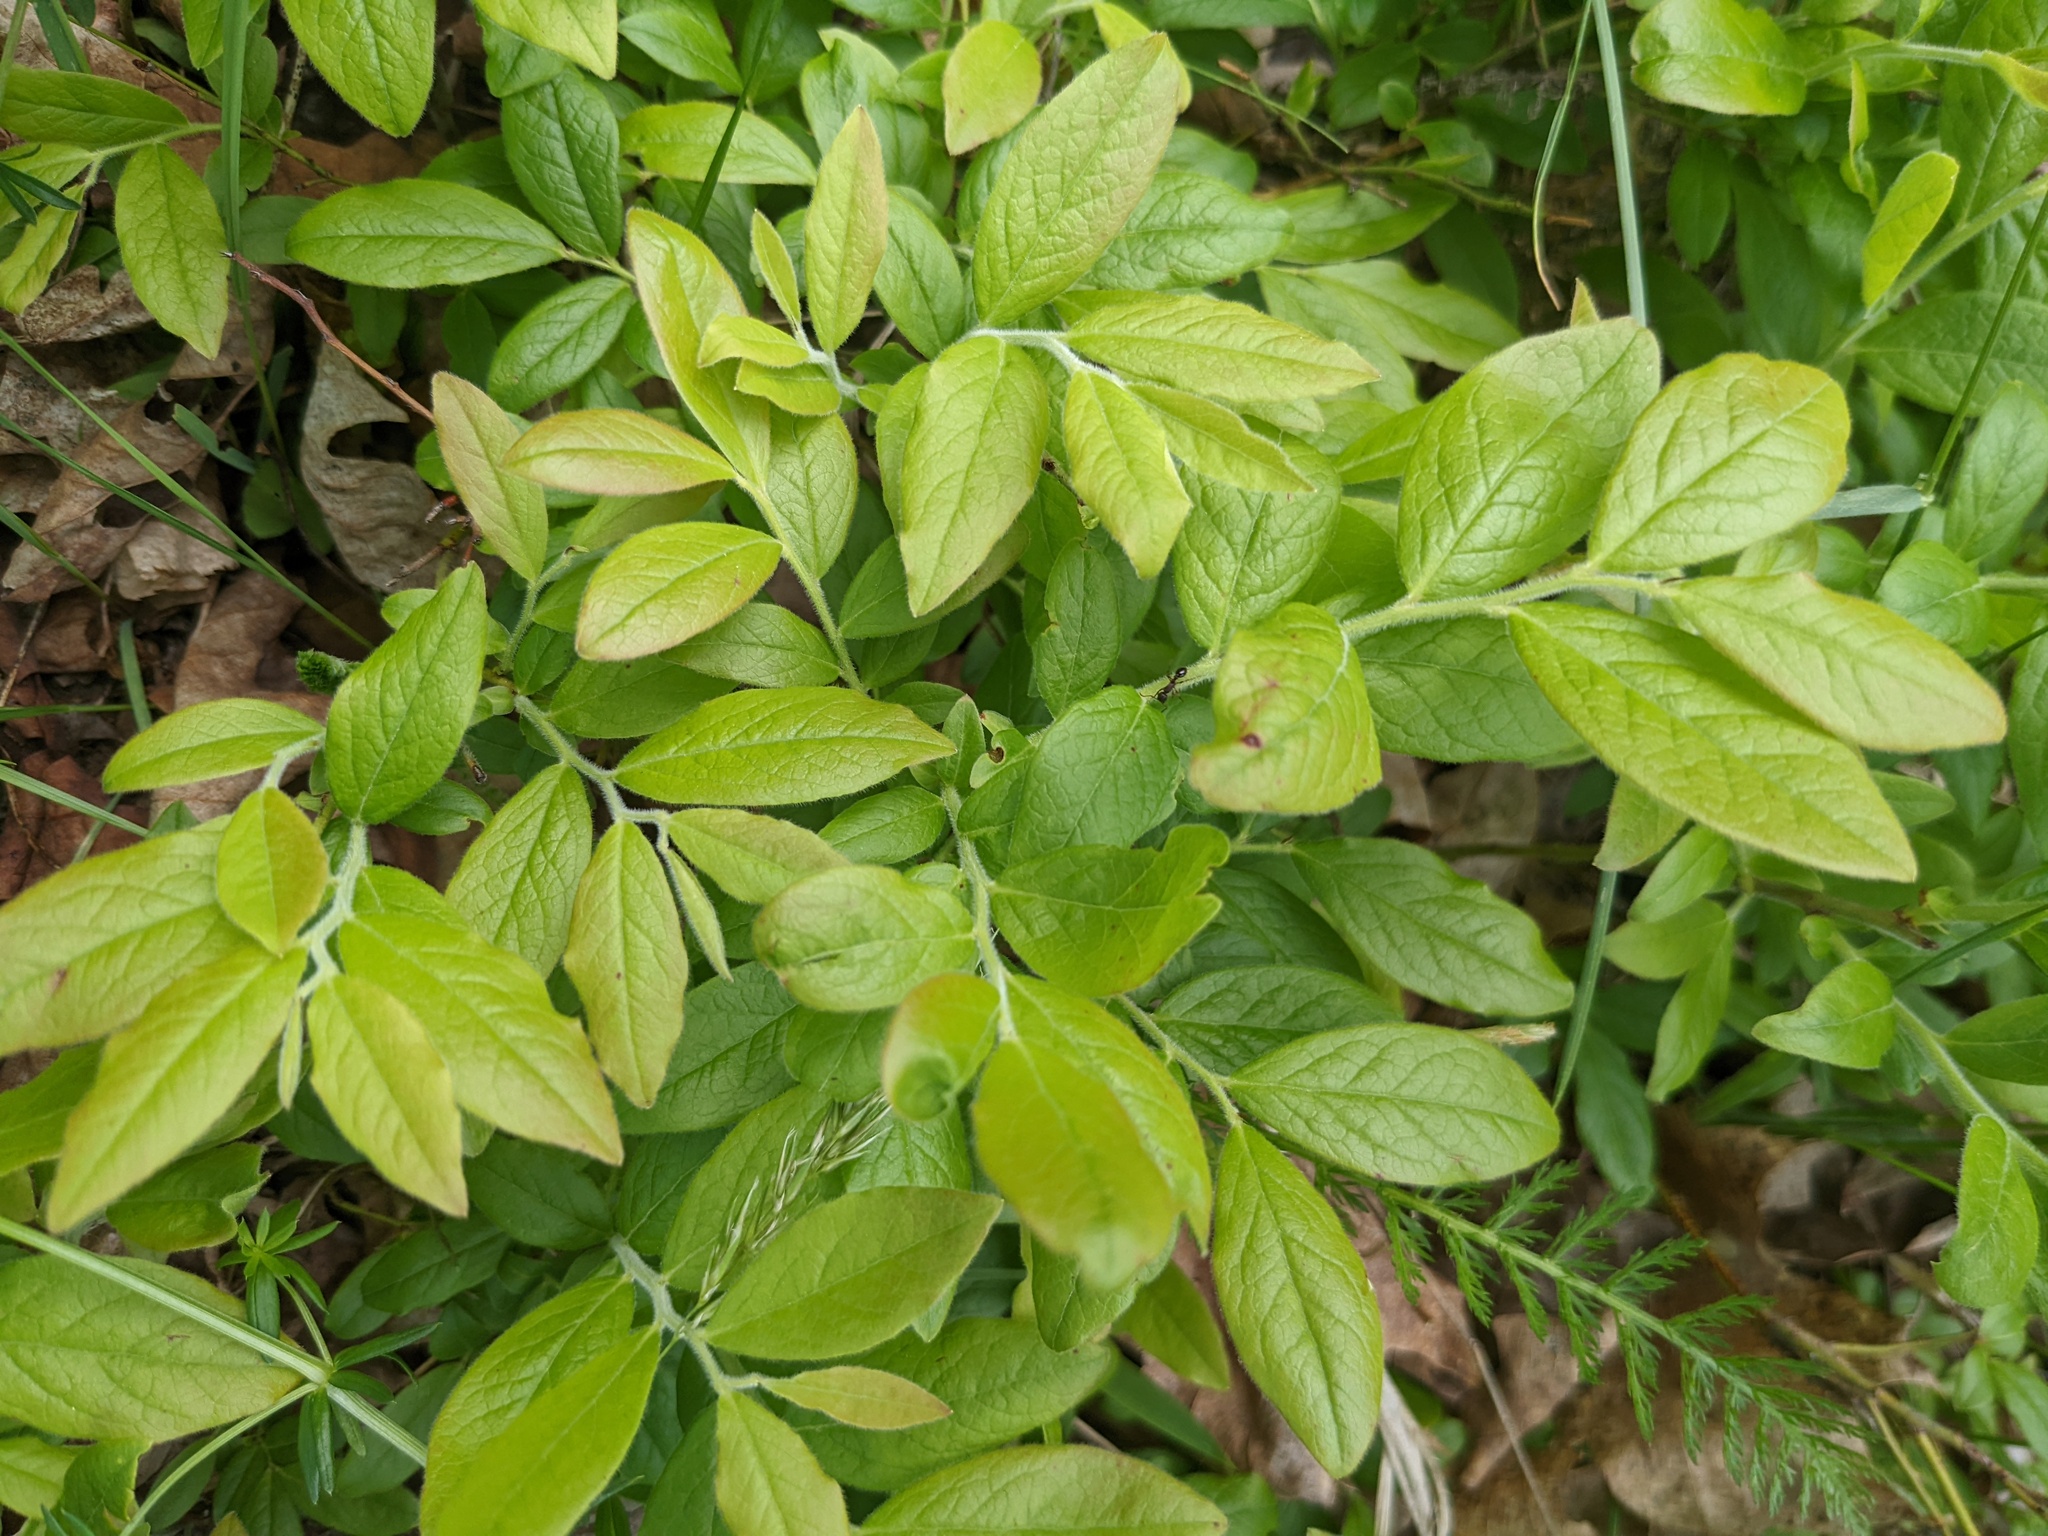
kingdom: Plantae
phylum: Tracheophyta
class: Magnoliopsida
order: Ericales
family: Ericaceae
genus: Vaccinium
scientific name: Vaccinium myrtilloides
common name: Canada blueberry
